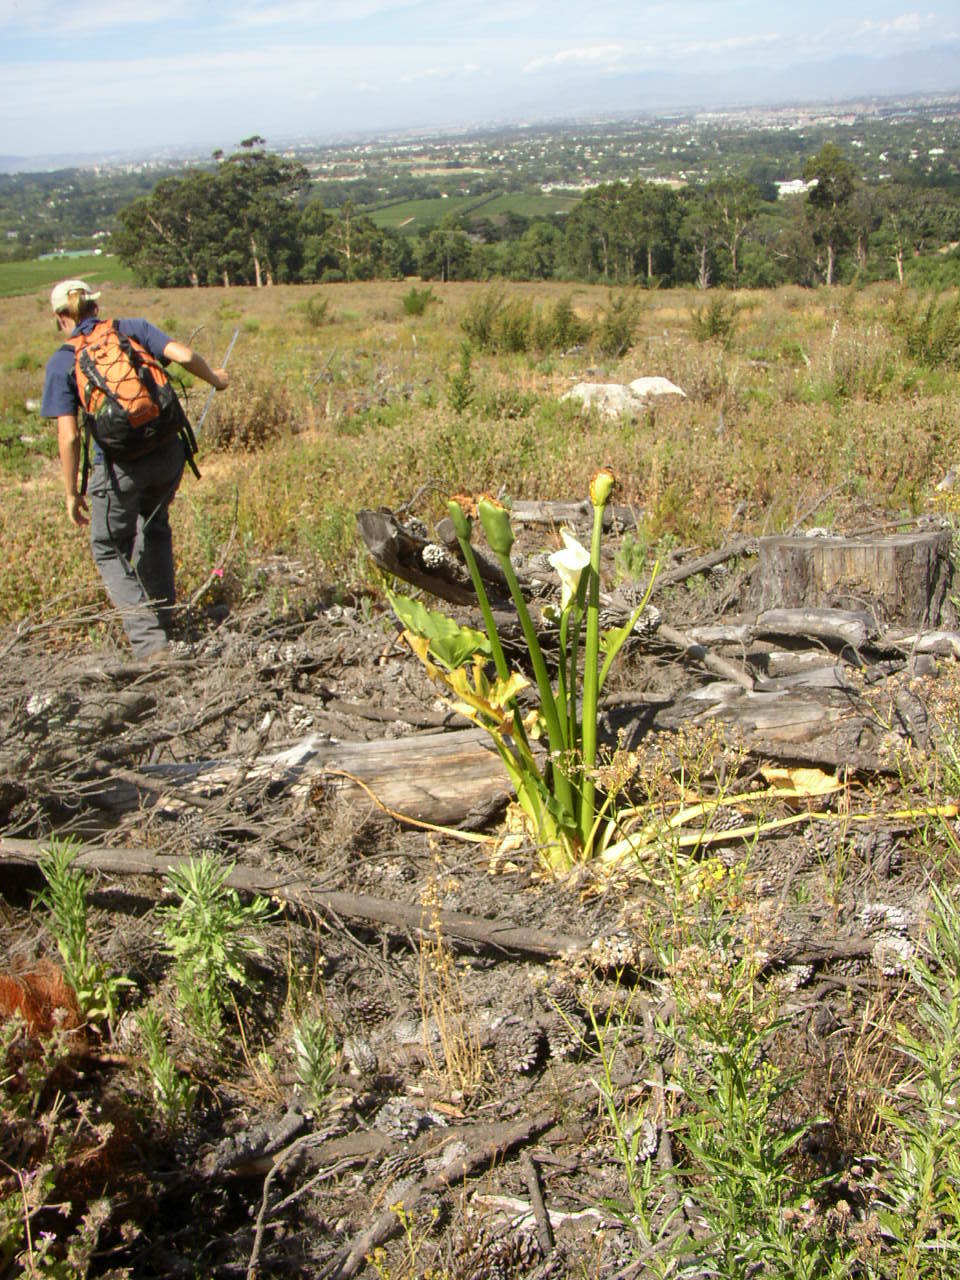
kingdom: Plantae
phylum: Tracheophyta
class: Liliopsida
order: Alismatales
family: Araceae
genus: Zantedeschia
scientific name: Zantedeschia aethiopica
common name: Altar-lily
